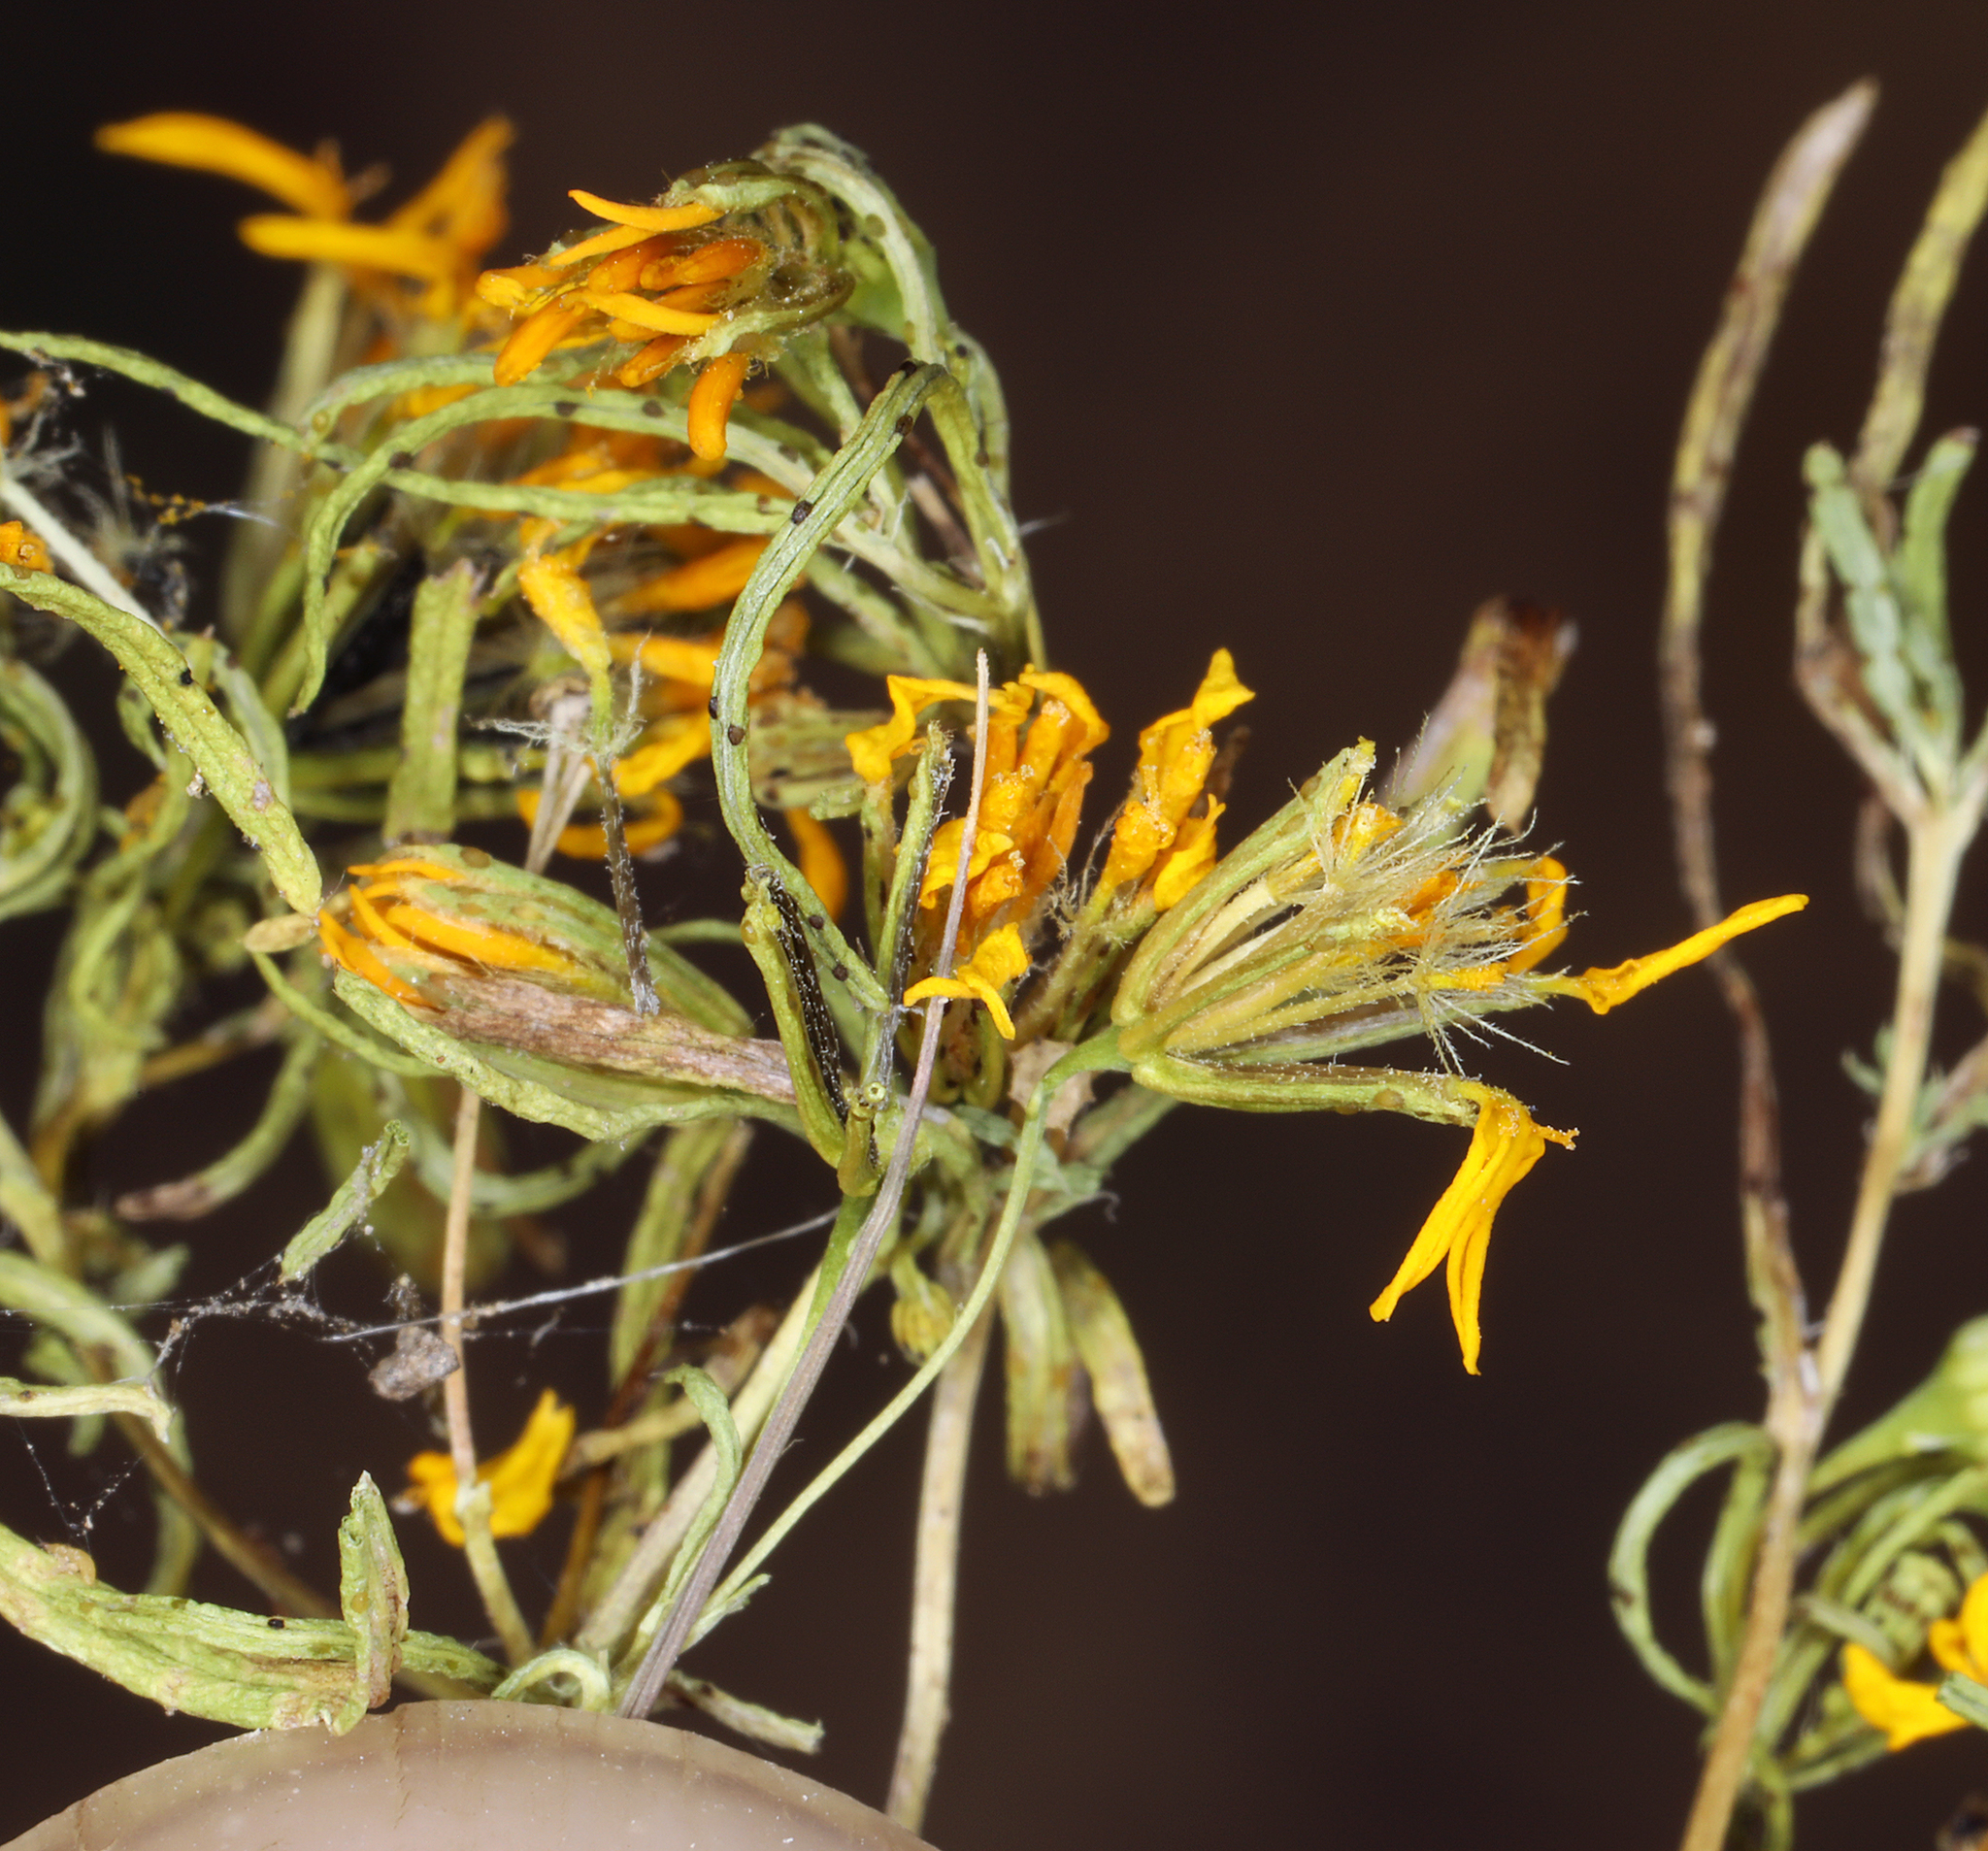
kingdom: Plantae
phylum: Tracheophyta
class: Magnoliopsida
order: Asterales
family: Asteraceae
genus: Pectis
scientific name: Pectis papposa
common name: Many-bristle chinchweed
